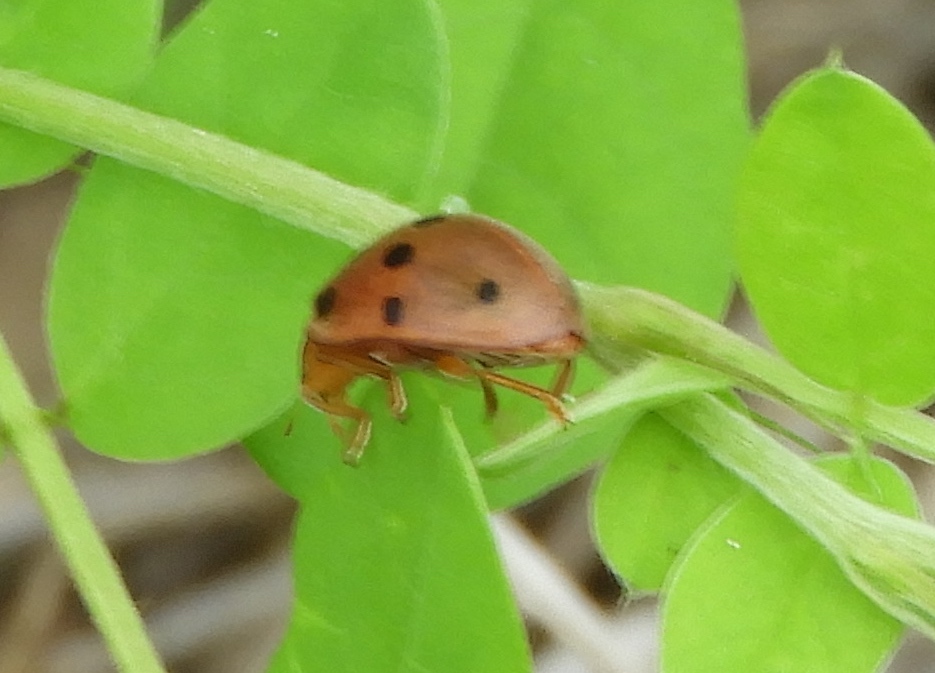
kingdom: Animalia
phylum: Arthropoda
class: Insecta
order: Coleoptera
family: Coccinellidae
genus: Epilachna
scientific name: Epilachna tredecimnotata
